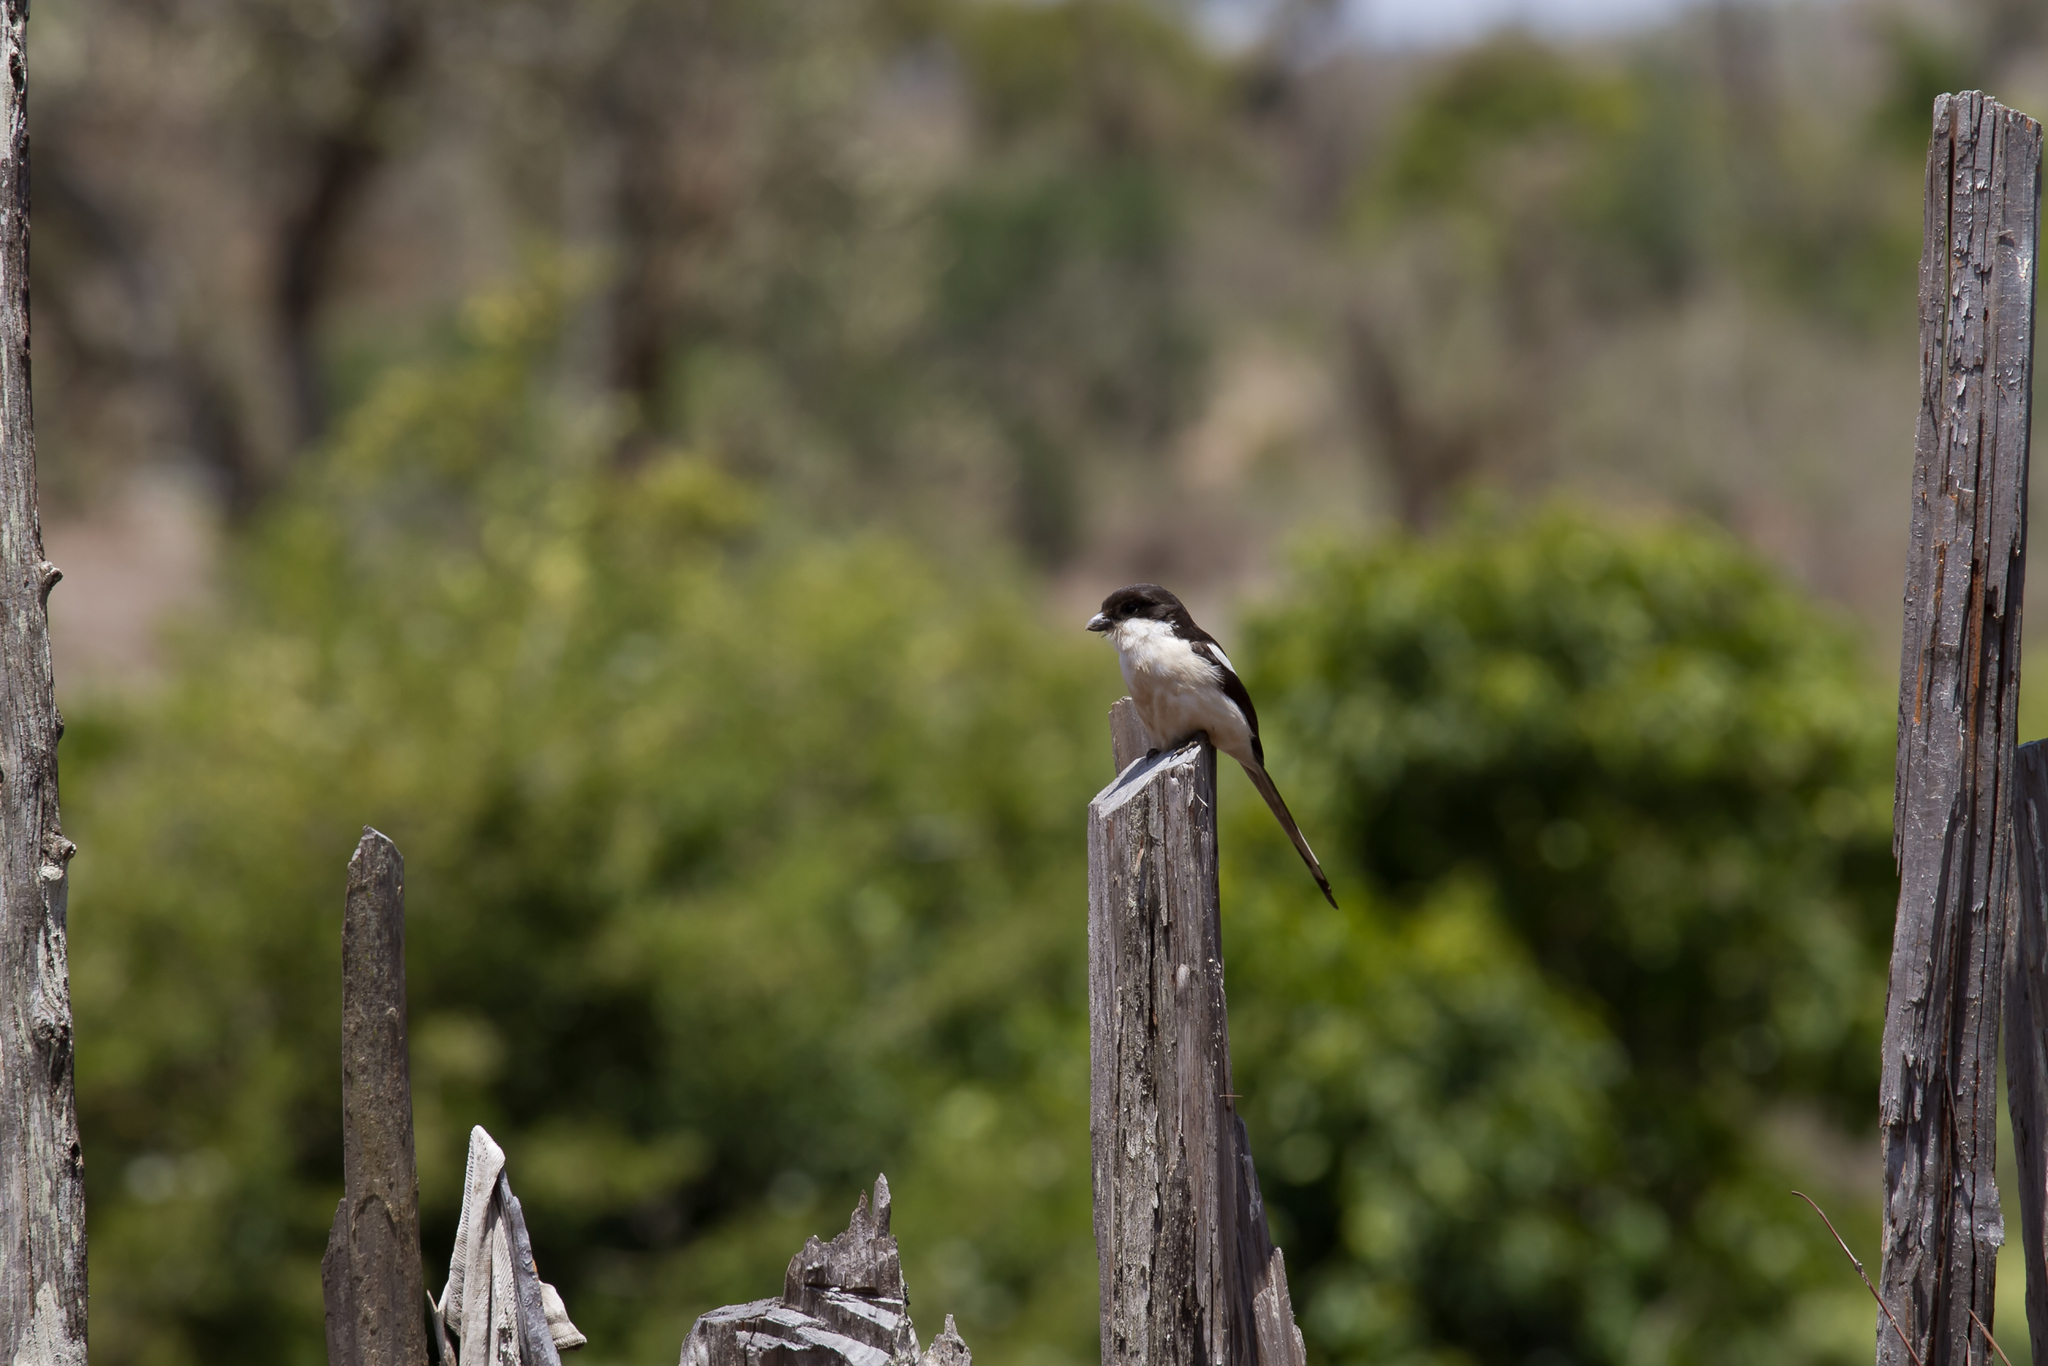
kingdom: Animalia
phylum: Chordata
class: Aves
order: Passeriformes
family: Laniidae
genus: Lanius
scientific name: Lanius humeralis
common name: Northern fiscal
